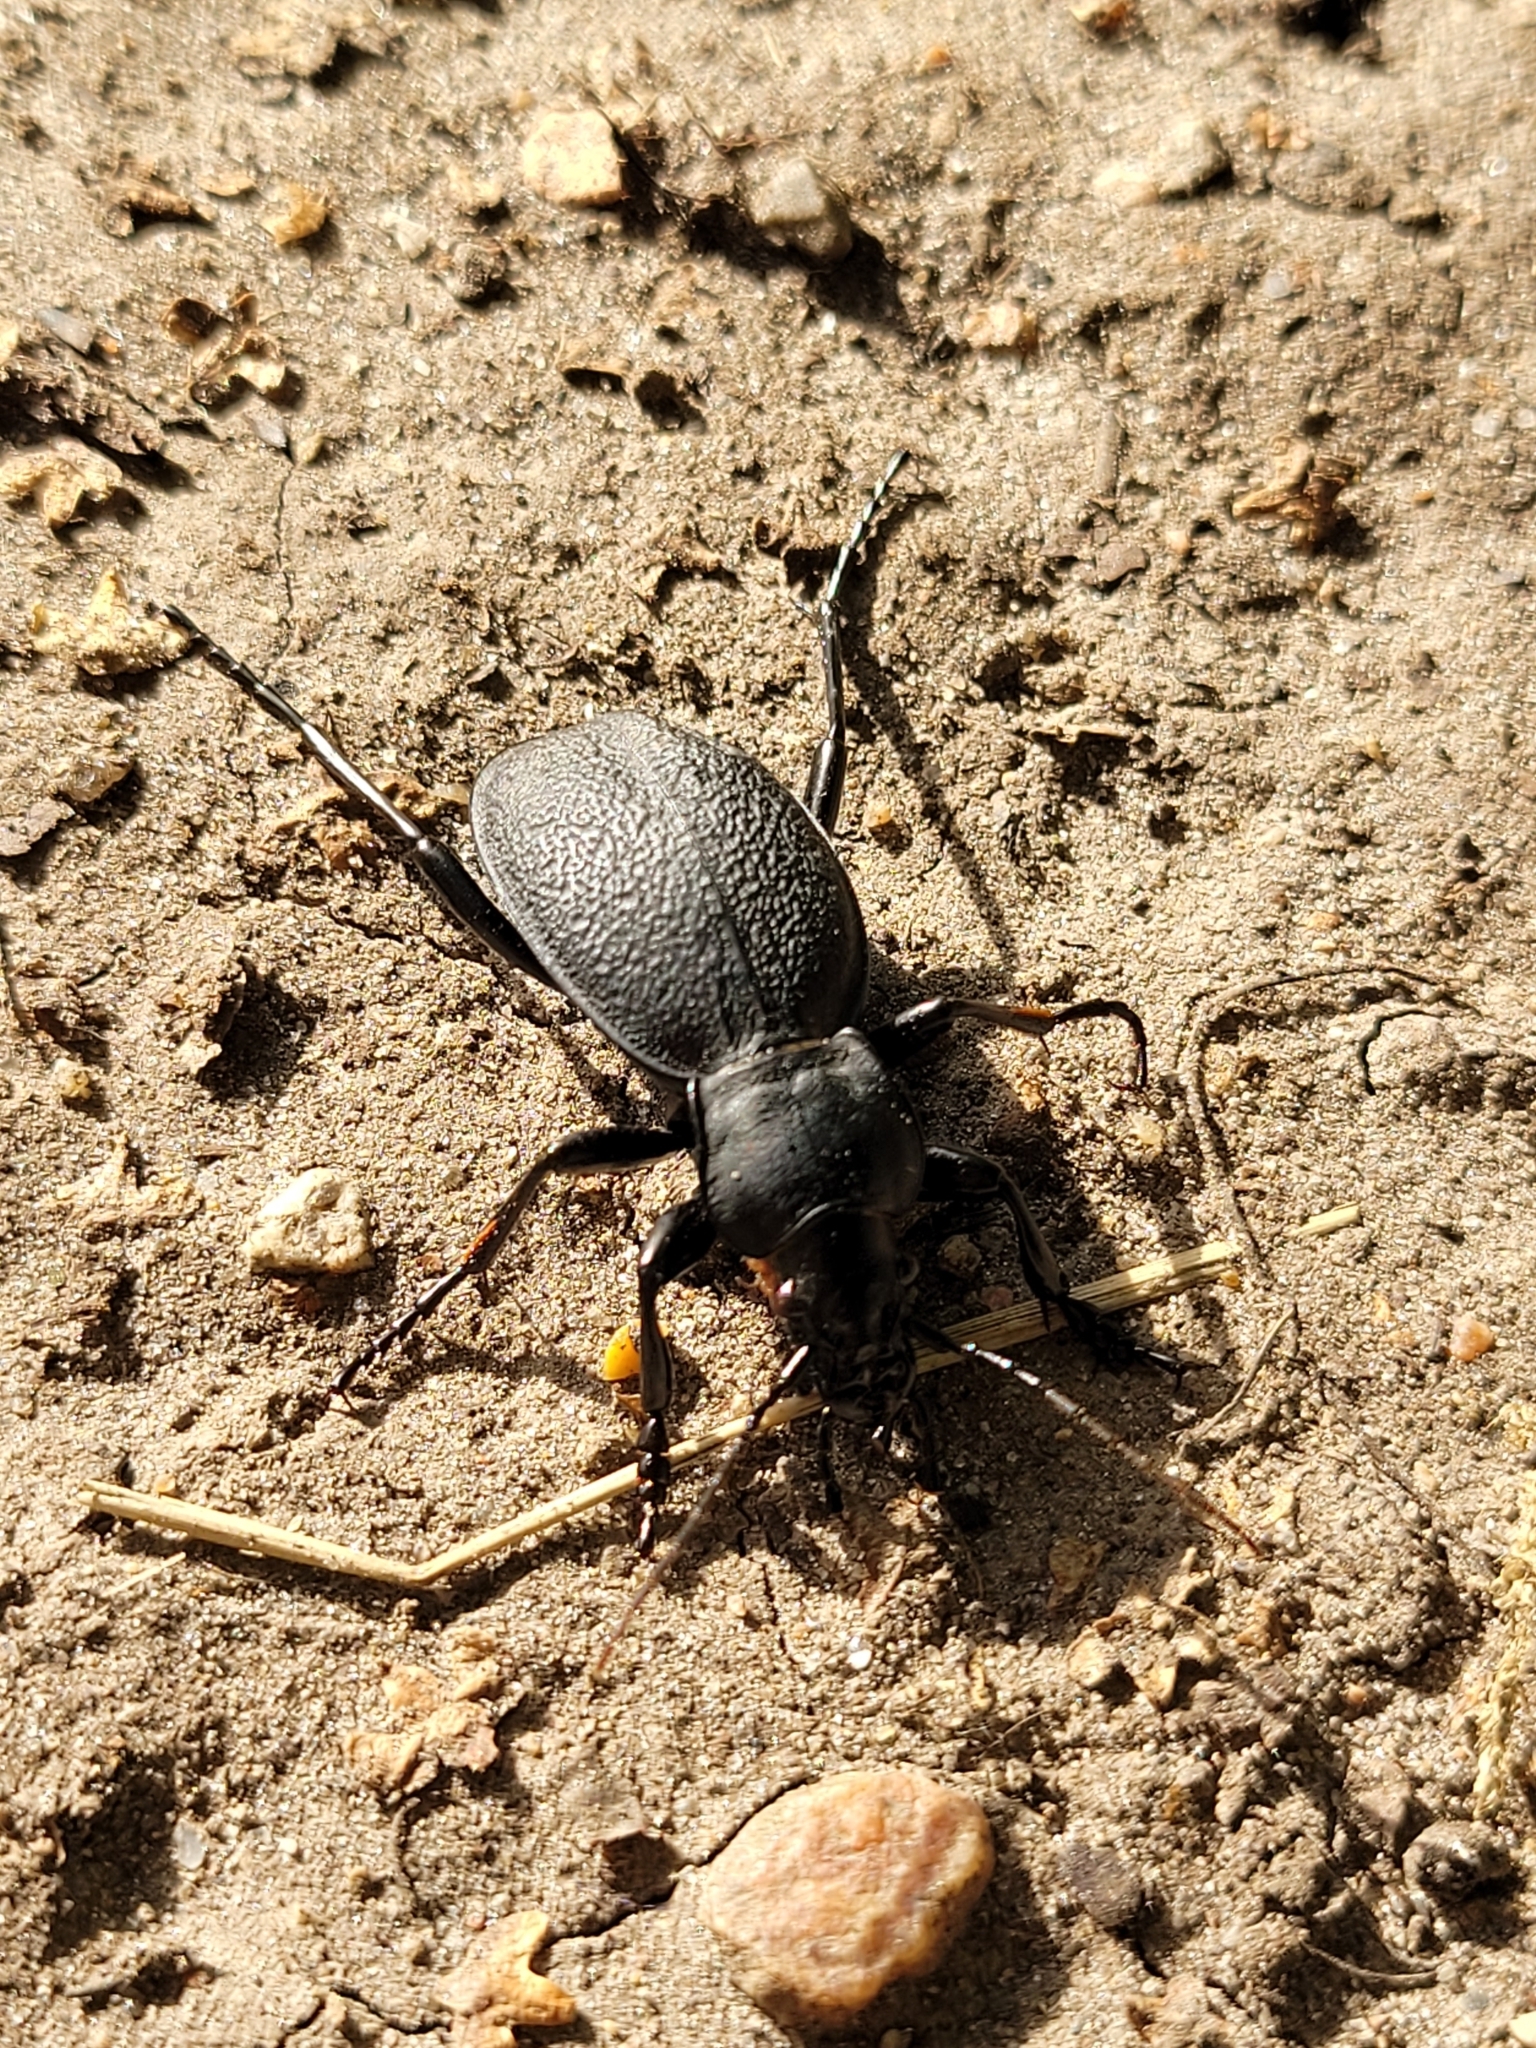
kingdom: Animalia
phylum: Arthropoda
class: Insecta
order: Coleoptera
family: Carabidae
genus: Carabus
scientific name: Carabus coriaceus
